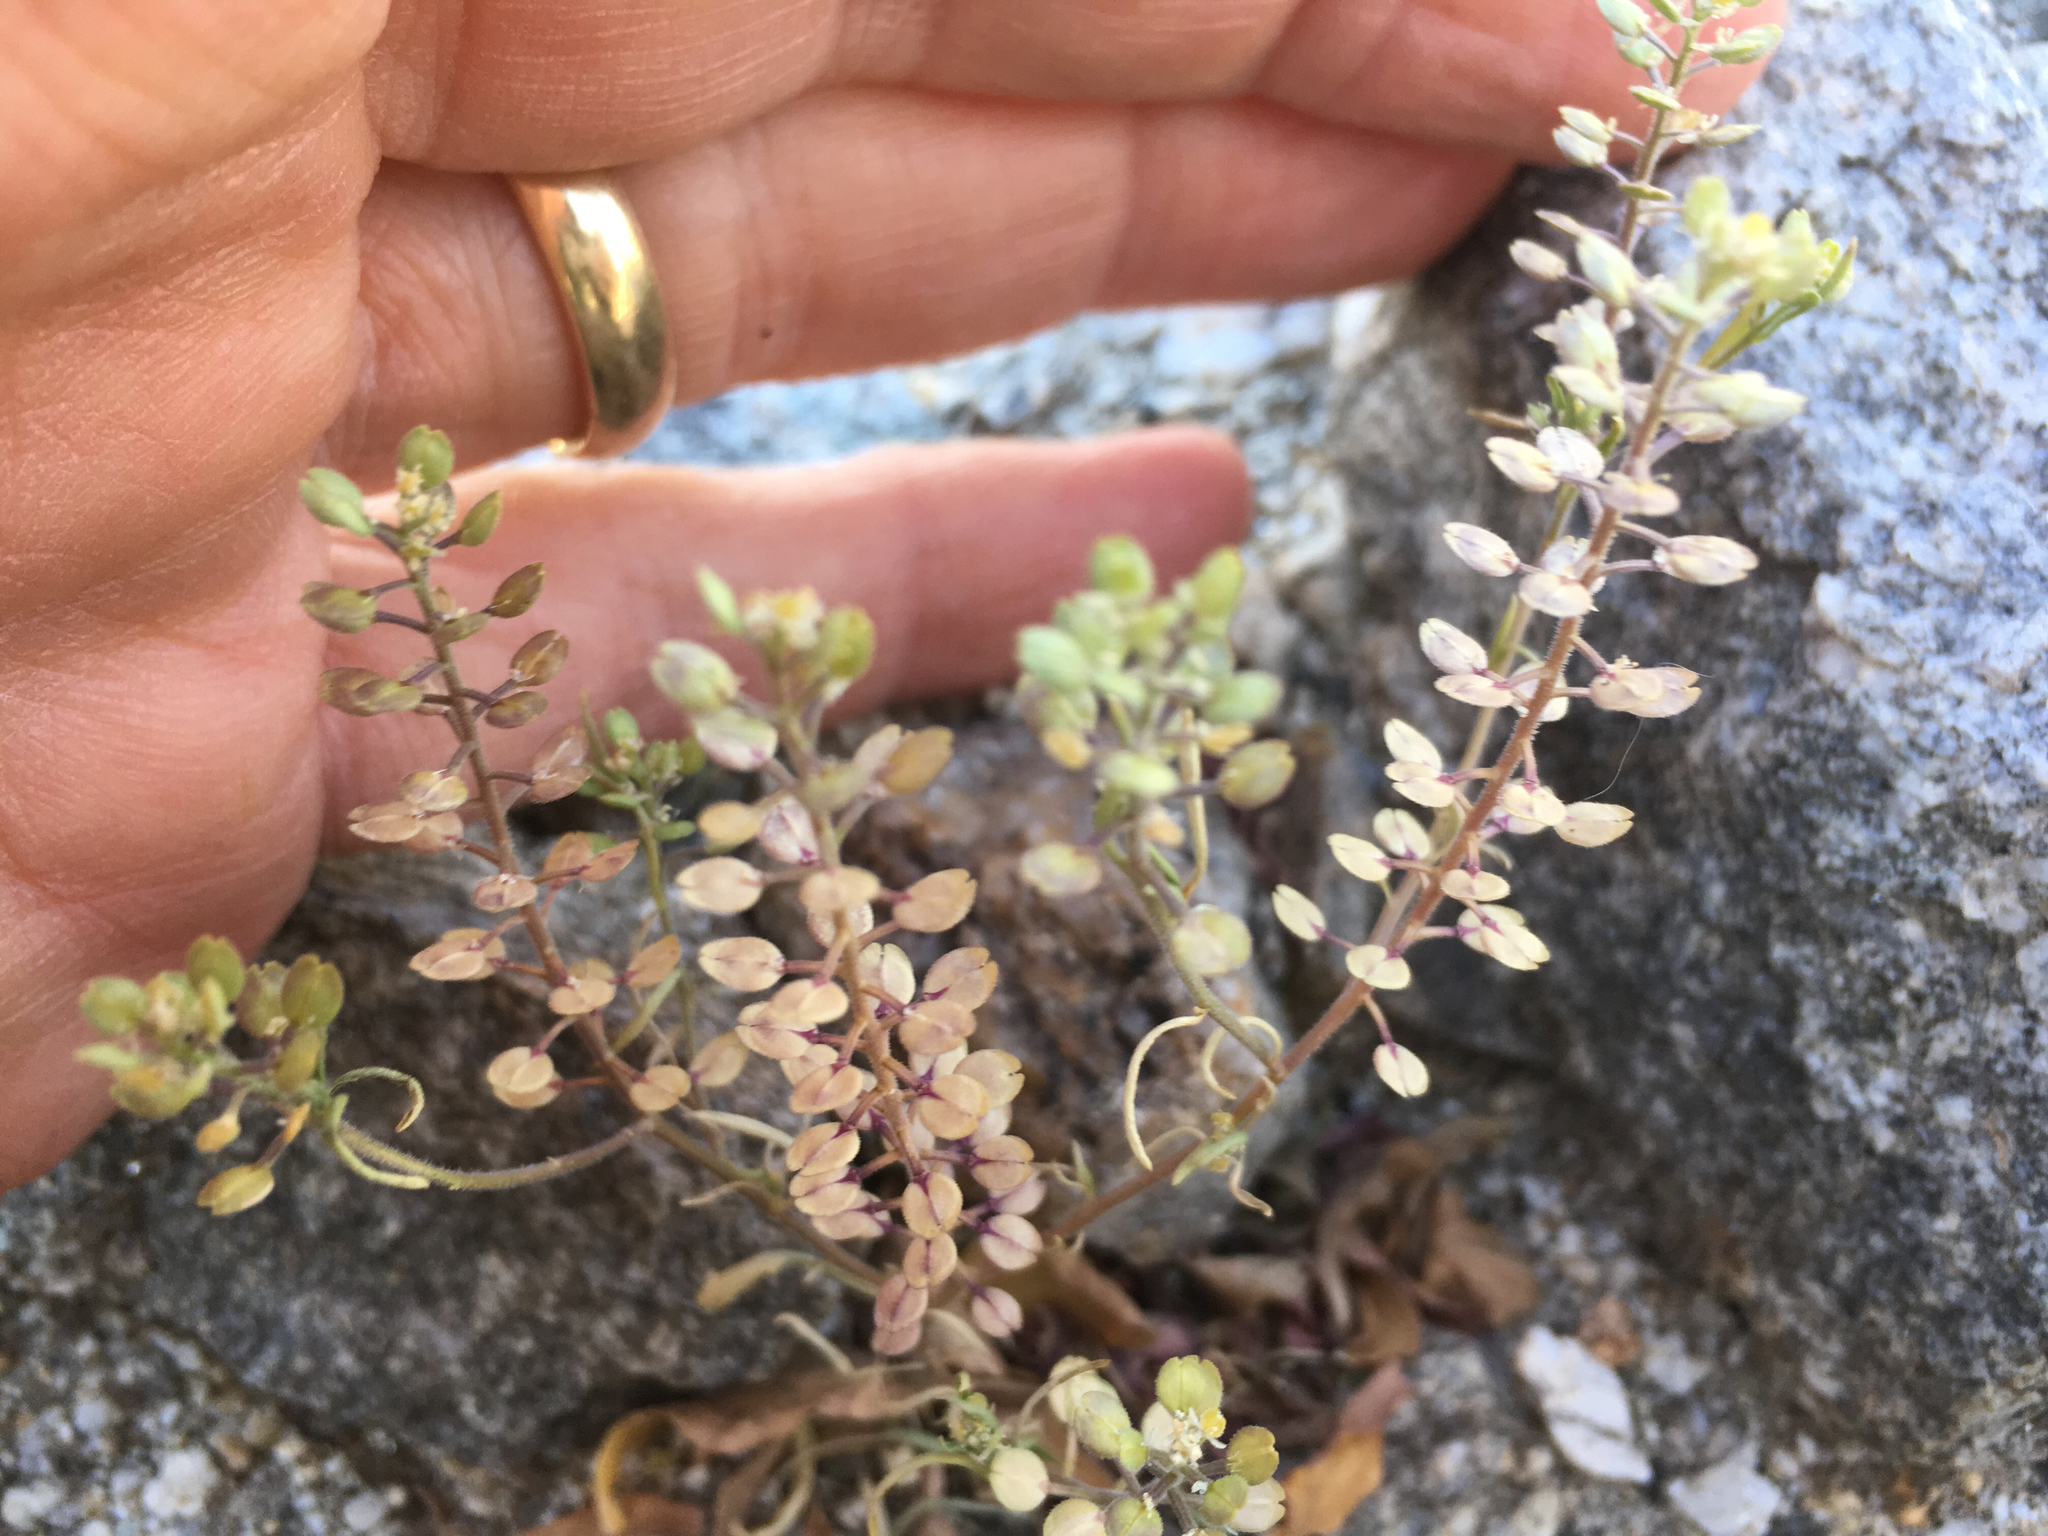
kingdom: Plantae
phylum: Tracheophyta
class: Magnoliopsida
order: Brassicales
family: Brassicaceae
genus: Lepidium
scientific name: Lepidium lasiocarpum
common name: Hairy-pod pepperwort
